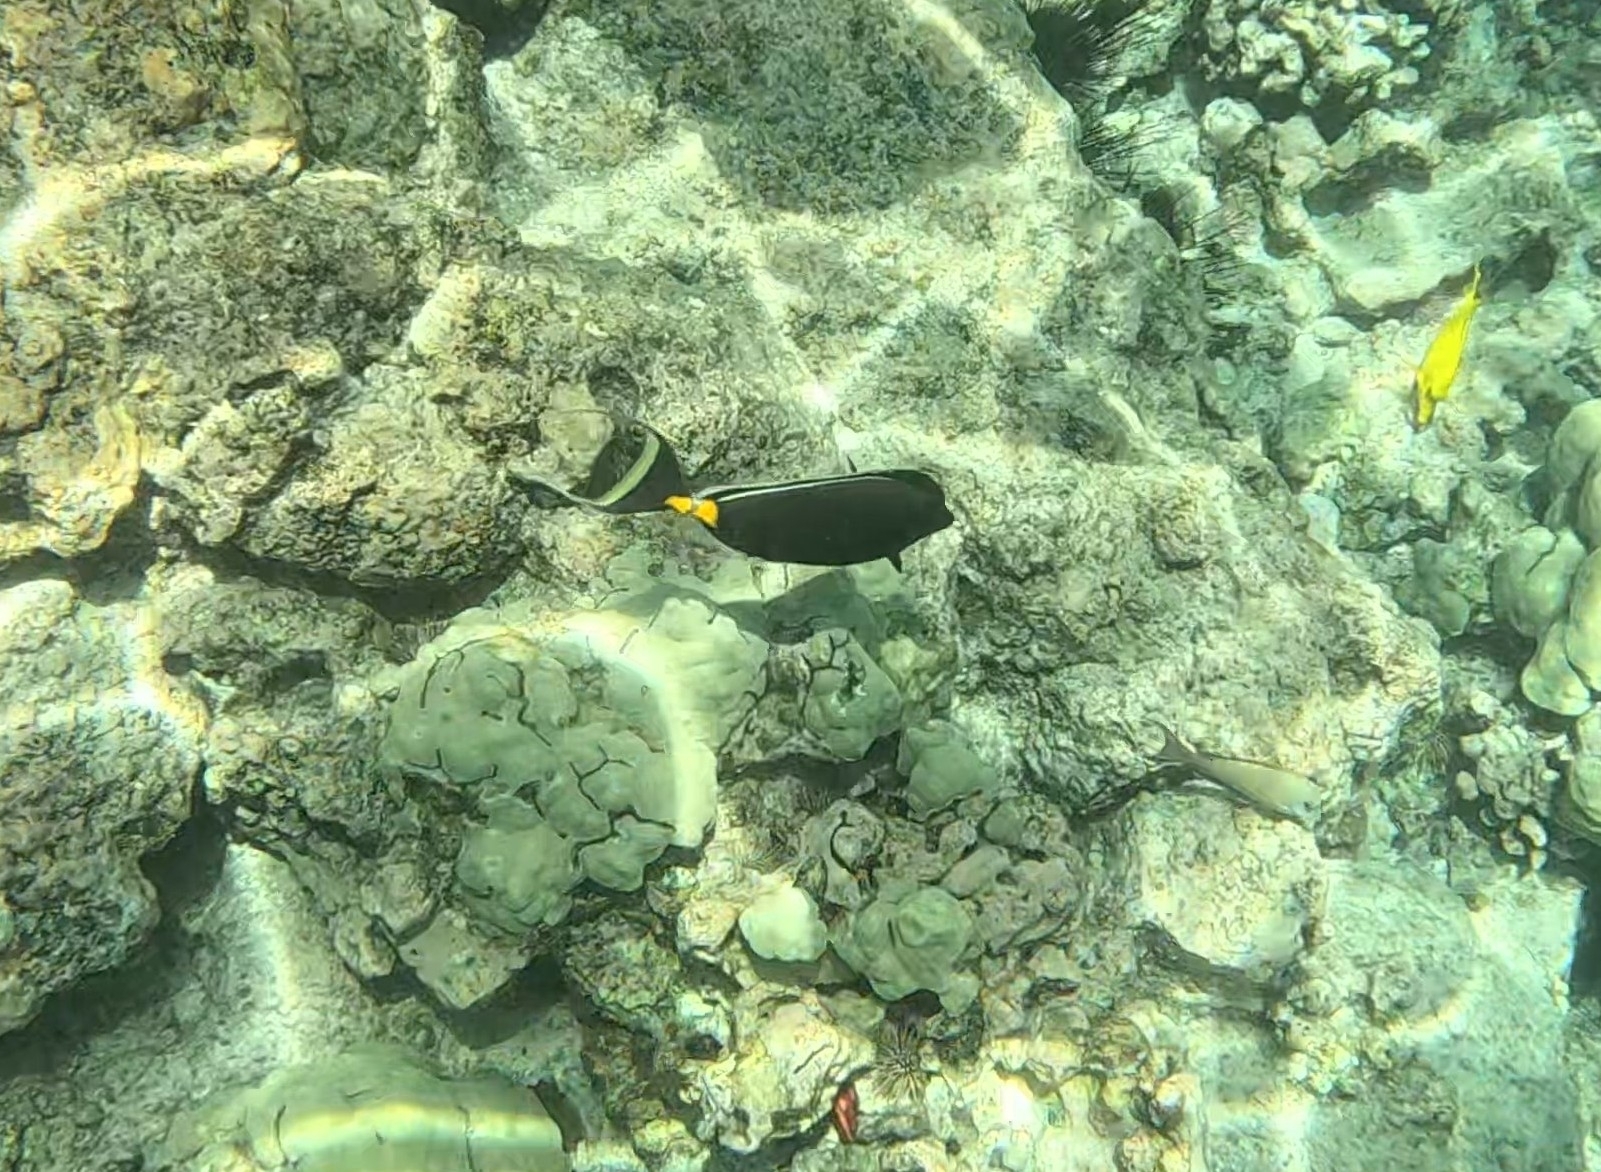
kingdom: Animalia
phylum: Chordata
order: Perciformes
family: Acanthuridae
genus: Naso
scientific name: Naso lituratus
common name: Orangespine unicornfish
